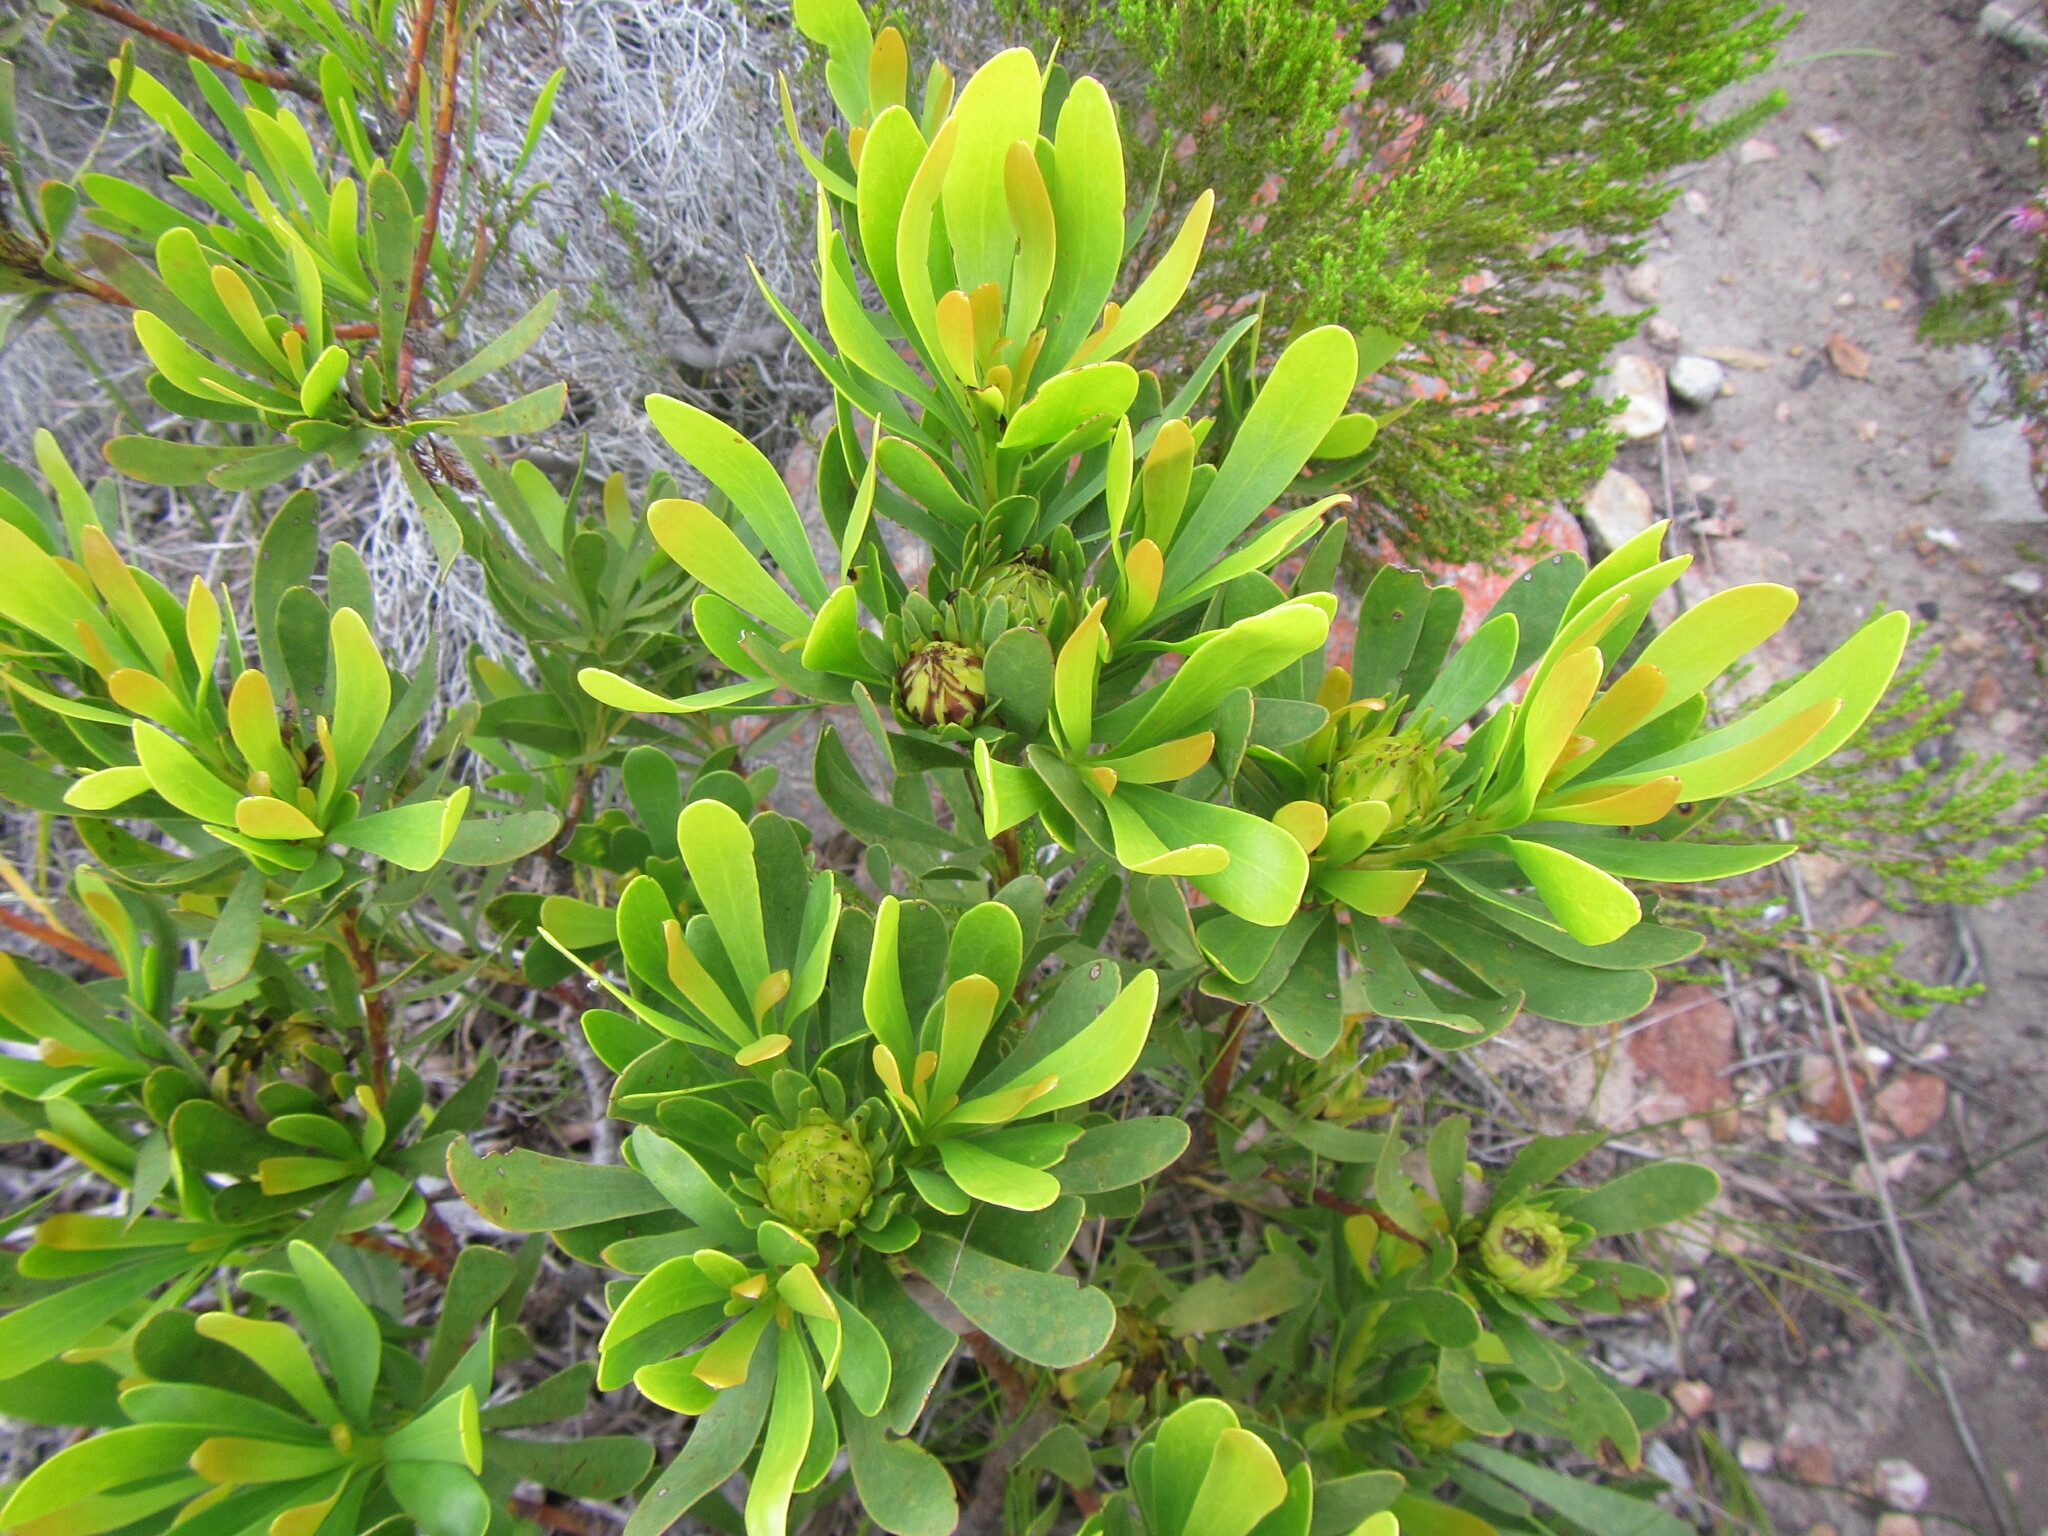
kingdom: Plantae
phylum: Tracheophyta
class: Magnoliopsida
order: Proteales
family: Proteaceae
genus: Aulax
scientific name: Aulax umbellata
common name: Broad-leaf featherbush
